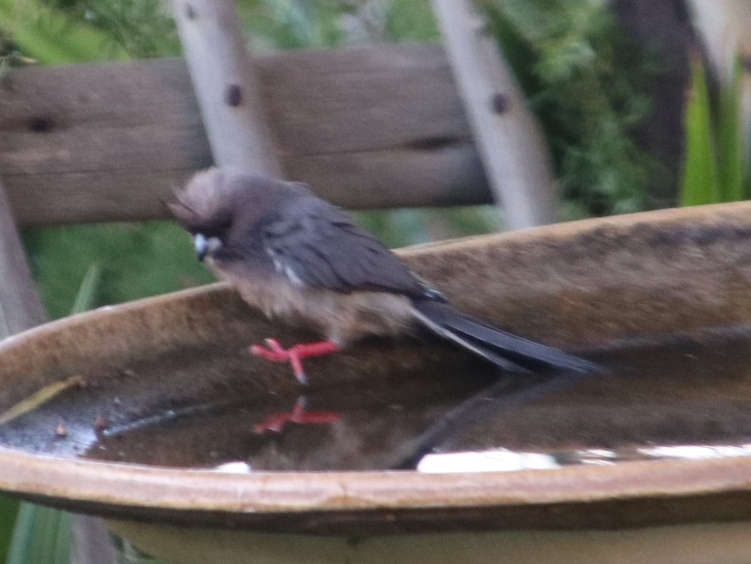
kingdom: Animalia
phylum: Chordata
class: Aves
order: Coliiformes
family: Coliidae
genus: Colius
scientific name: Colius colius
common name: White-backed mousebird
